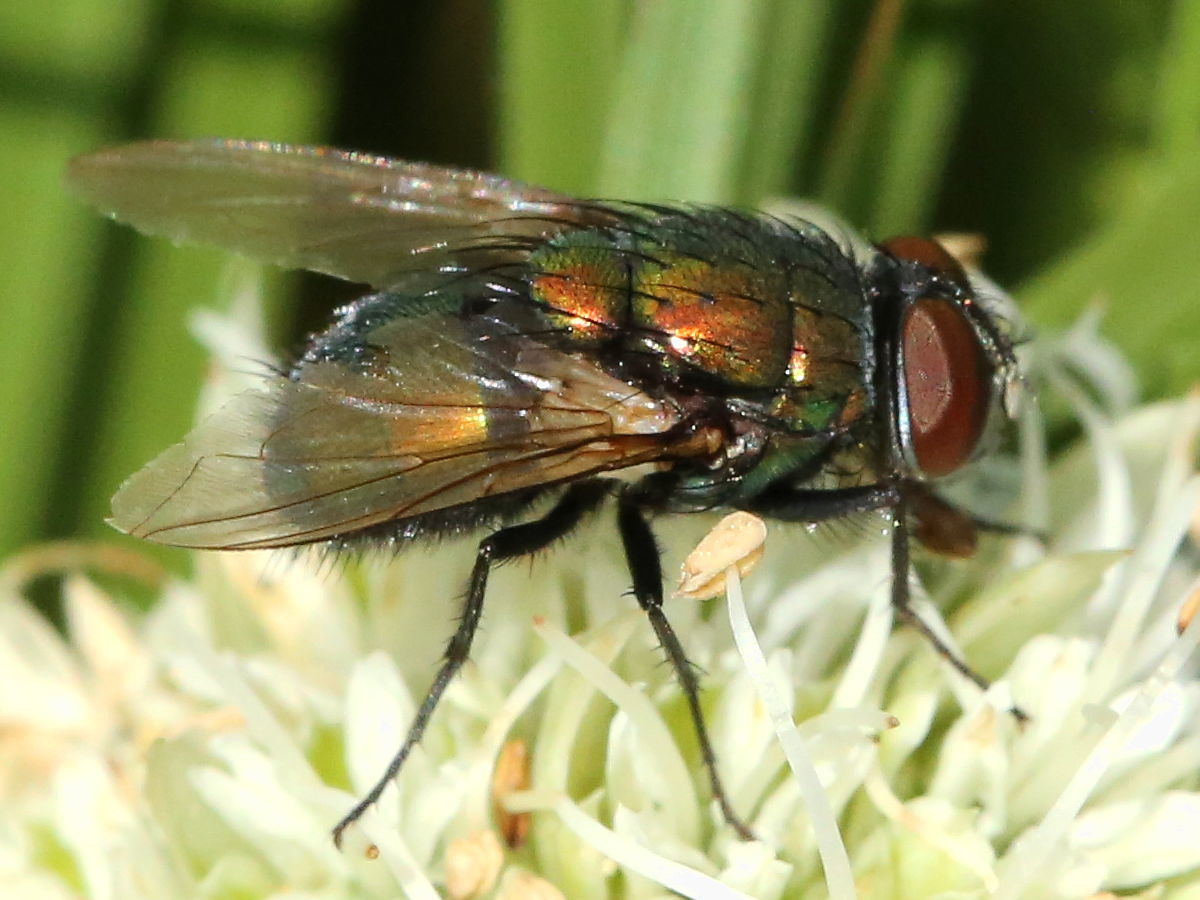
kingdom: Animalia
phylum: Arthropoda
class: Insecta
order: Diptera
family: Calliphoridae
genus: Lucilia
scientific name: Lucilia sericata
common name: Blow fly
